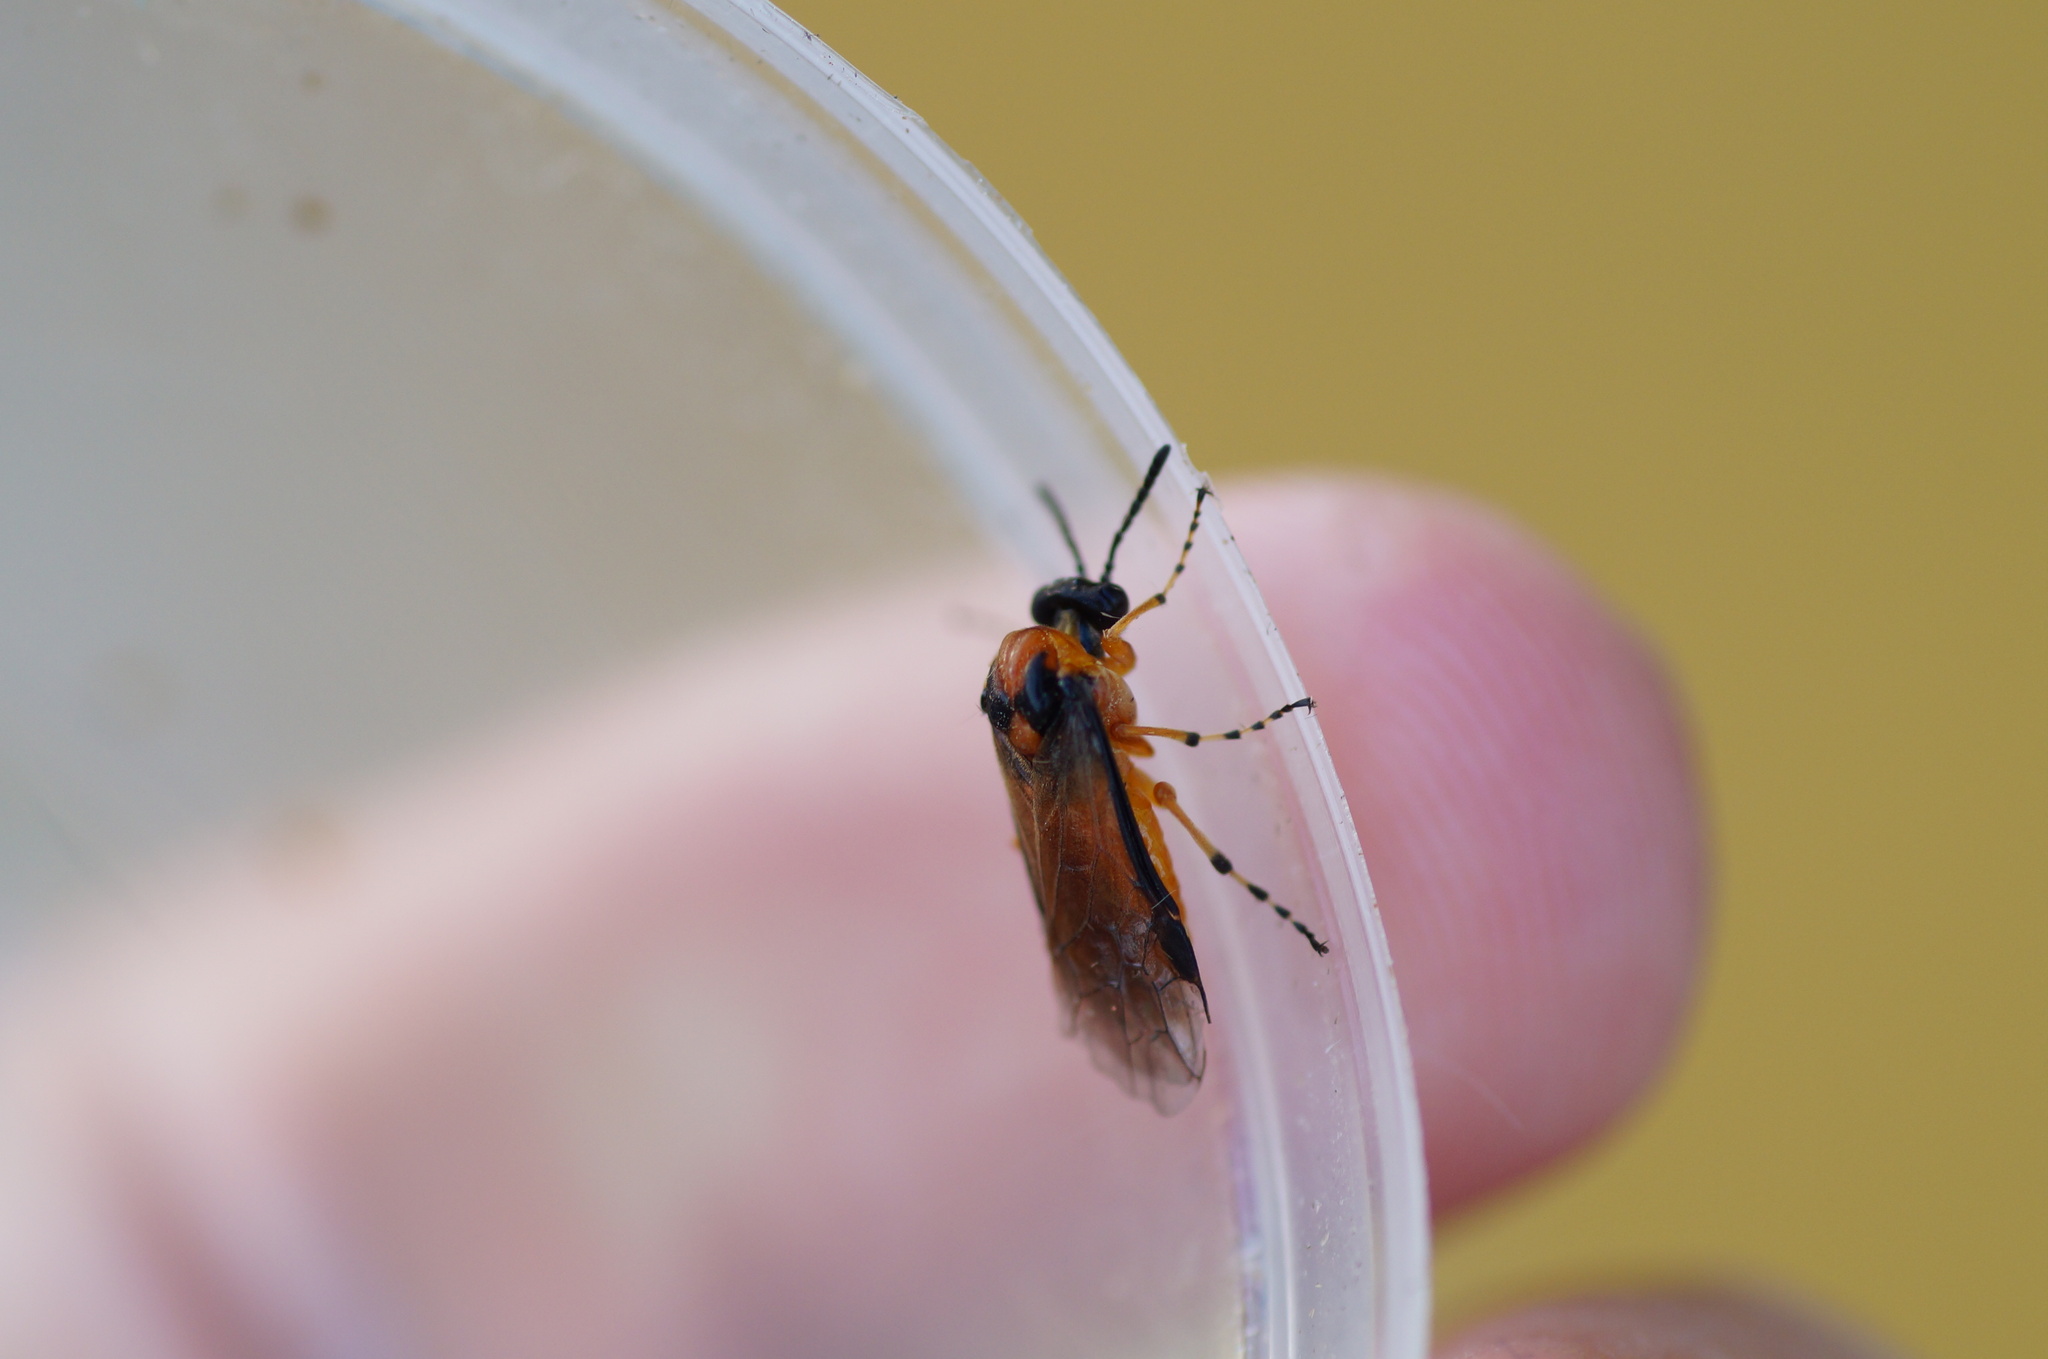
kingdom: Animalia
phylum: Arthropoda
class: Insecta
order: Hymenoptera
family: Tenthredinidae
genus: Athalia
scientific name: Athalia rosae
